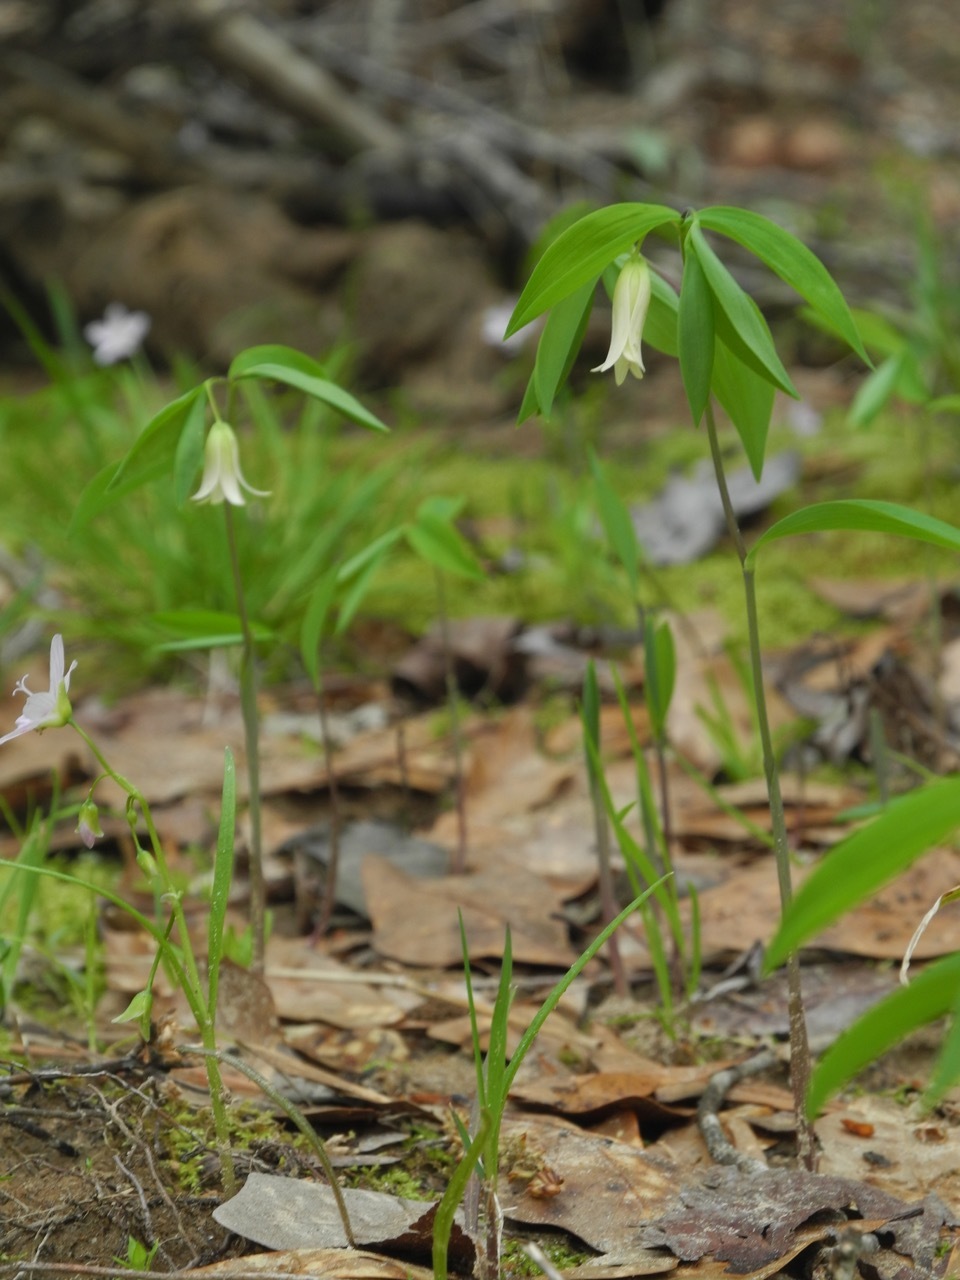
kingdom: Plantae
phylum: Tracheophyta
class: Liliopsida
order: Liliales
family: Colchicaceae
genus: Uvularia
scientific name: Uvularia sessilifolia
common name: Straw-lily
